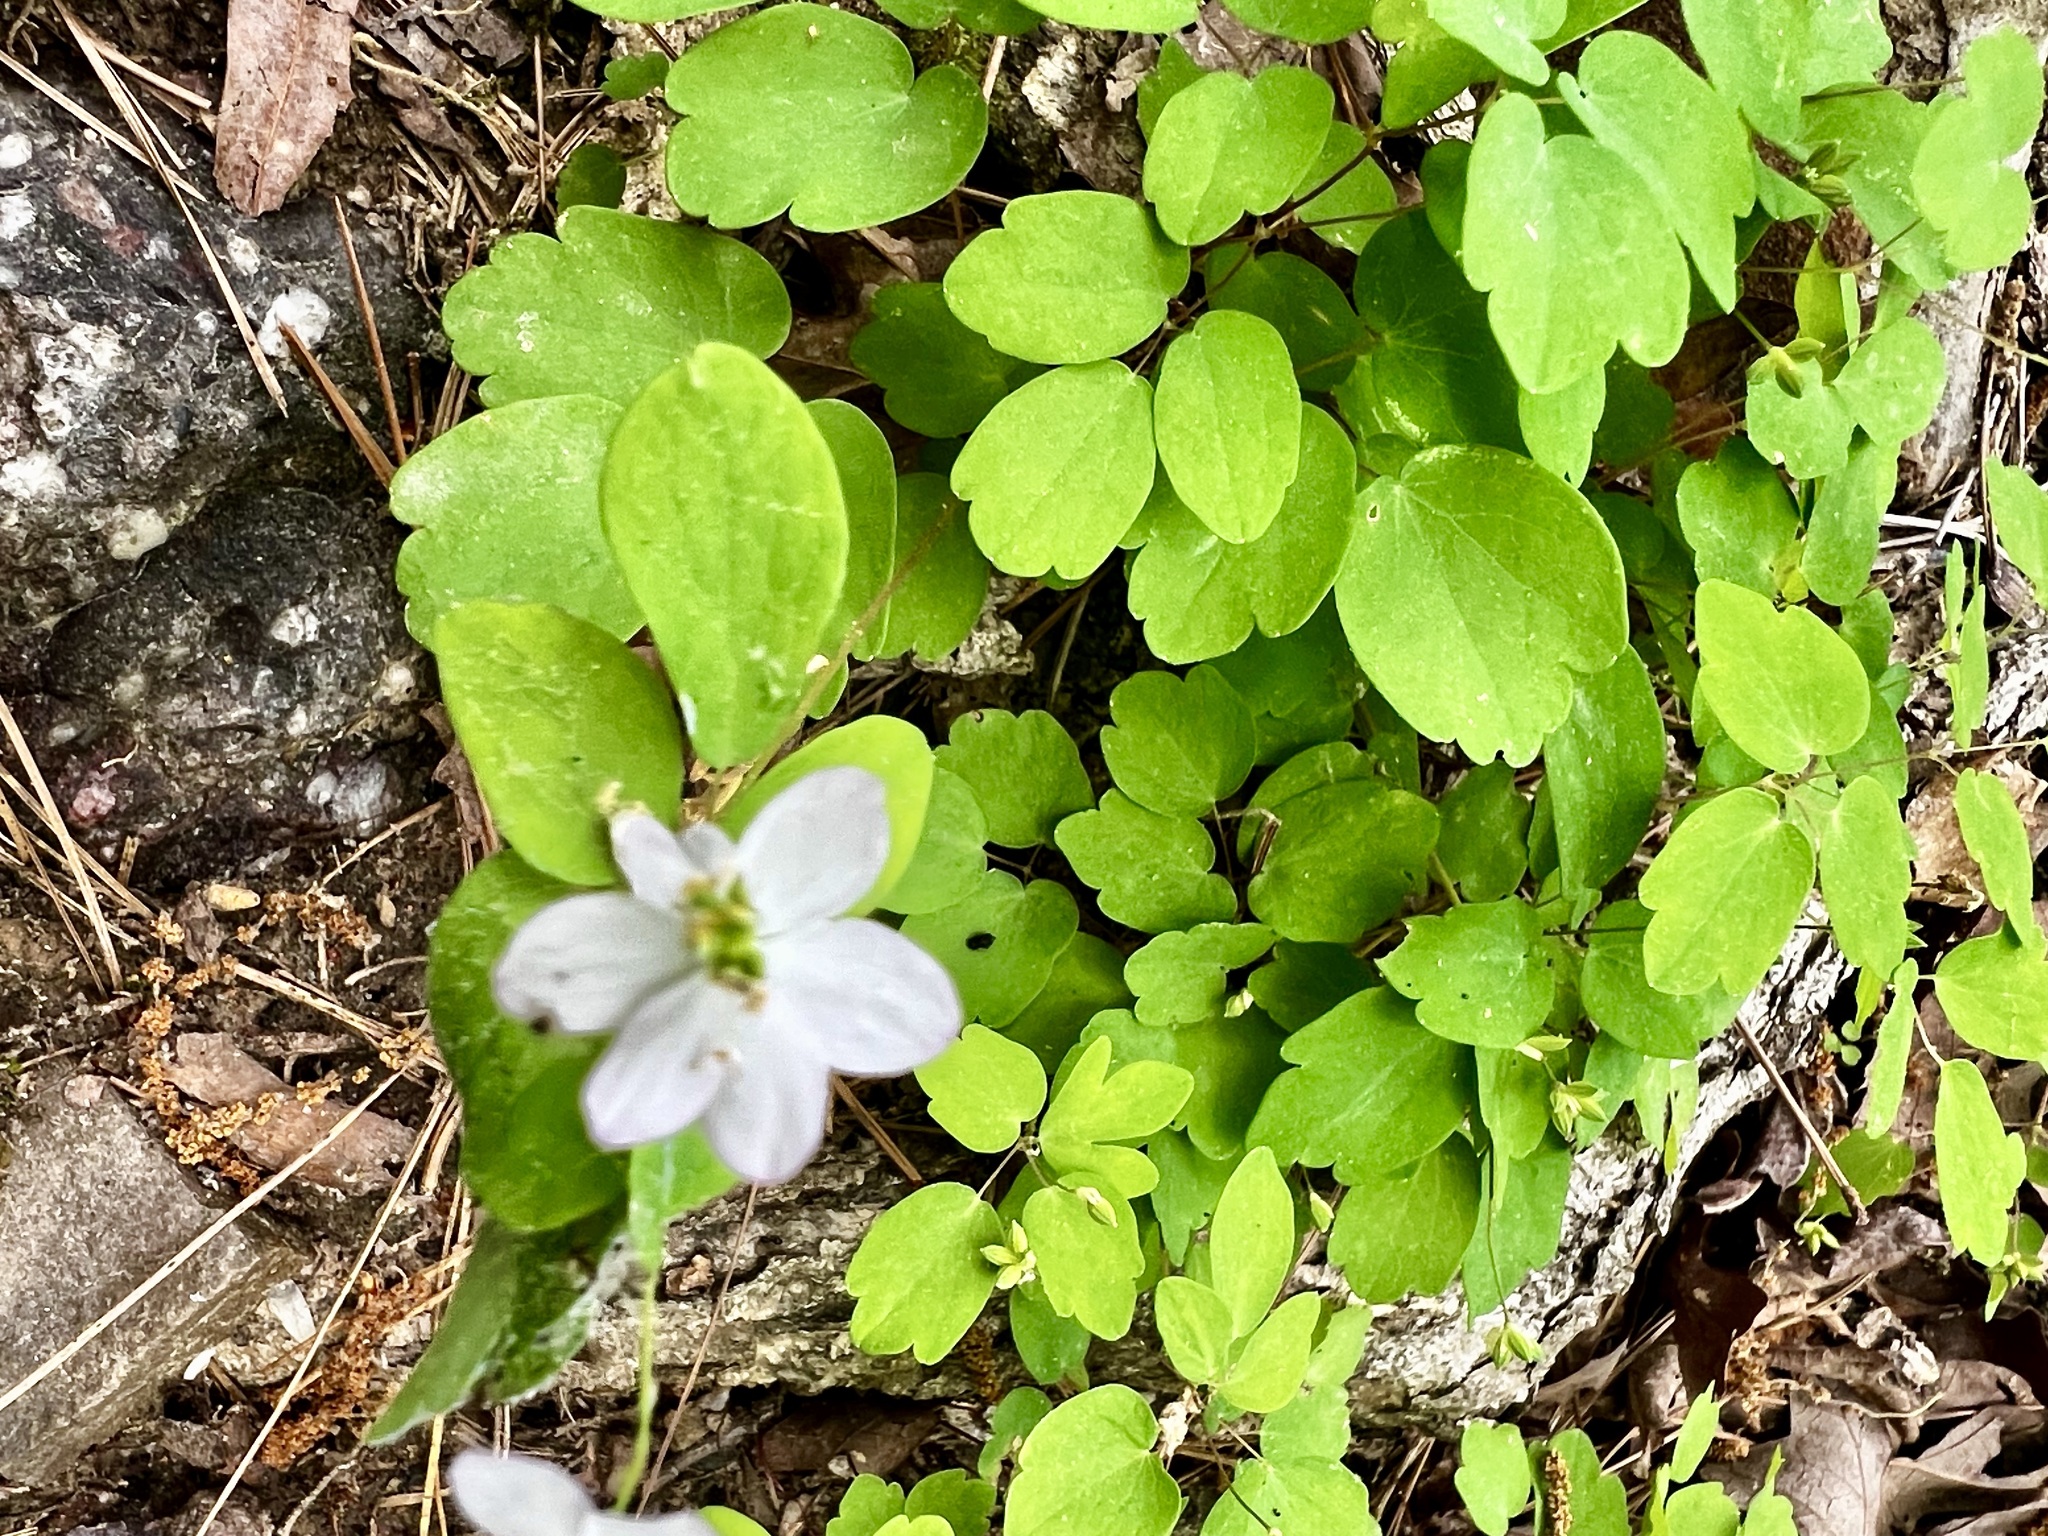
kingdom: Plantae
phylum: Tracheophyta
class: Magnoliopsida
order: Ranunculales
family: Ranunculaceae
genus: Thalictrum
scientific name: Thalictrum thalictroides
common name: Rue-anemone
